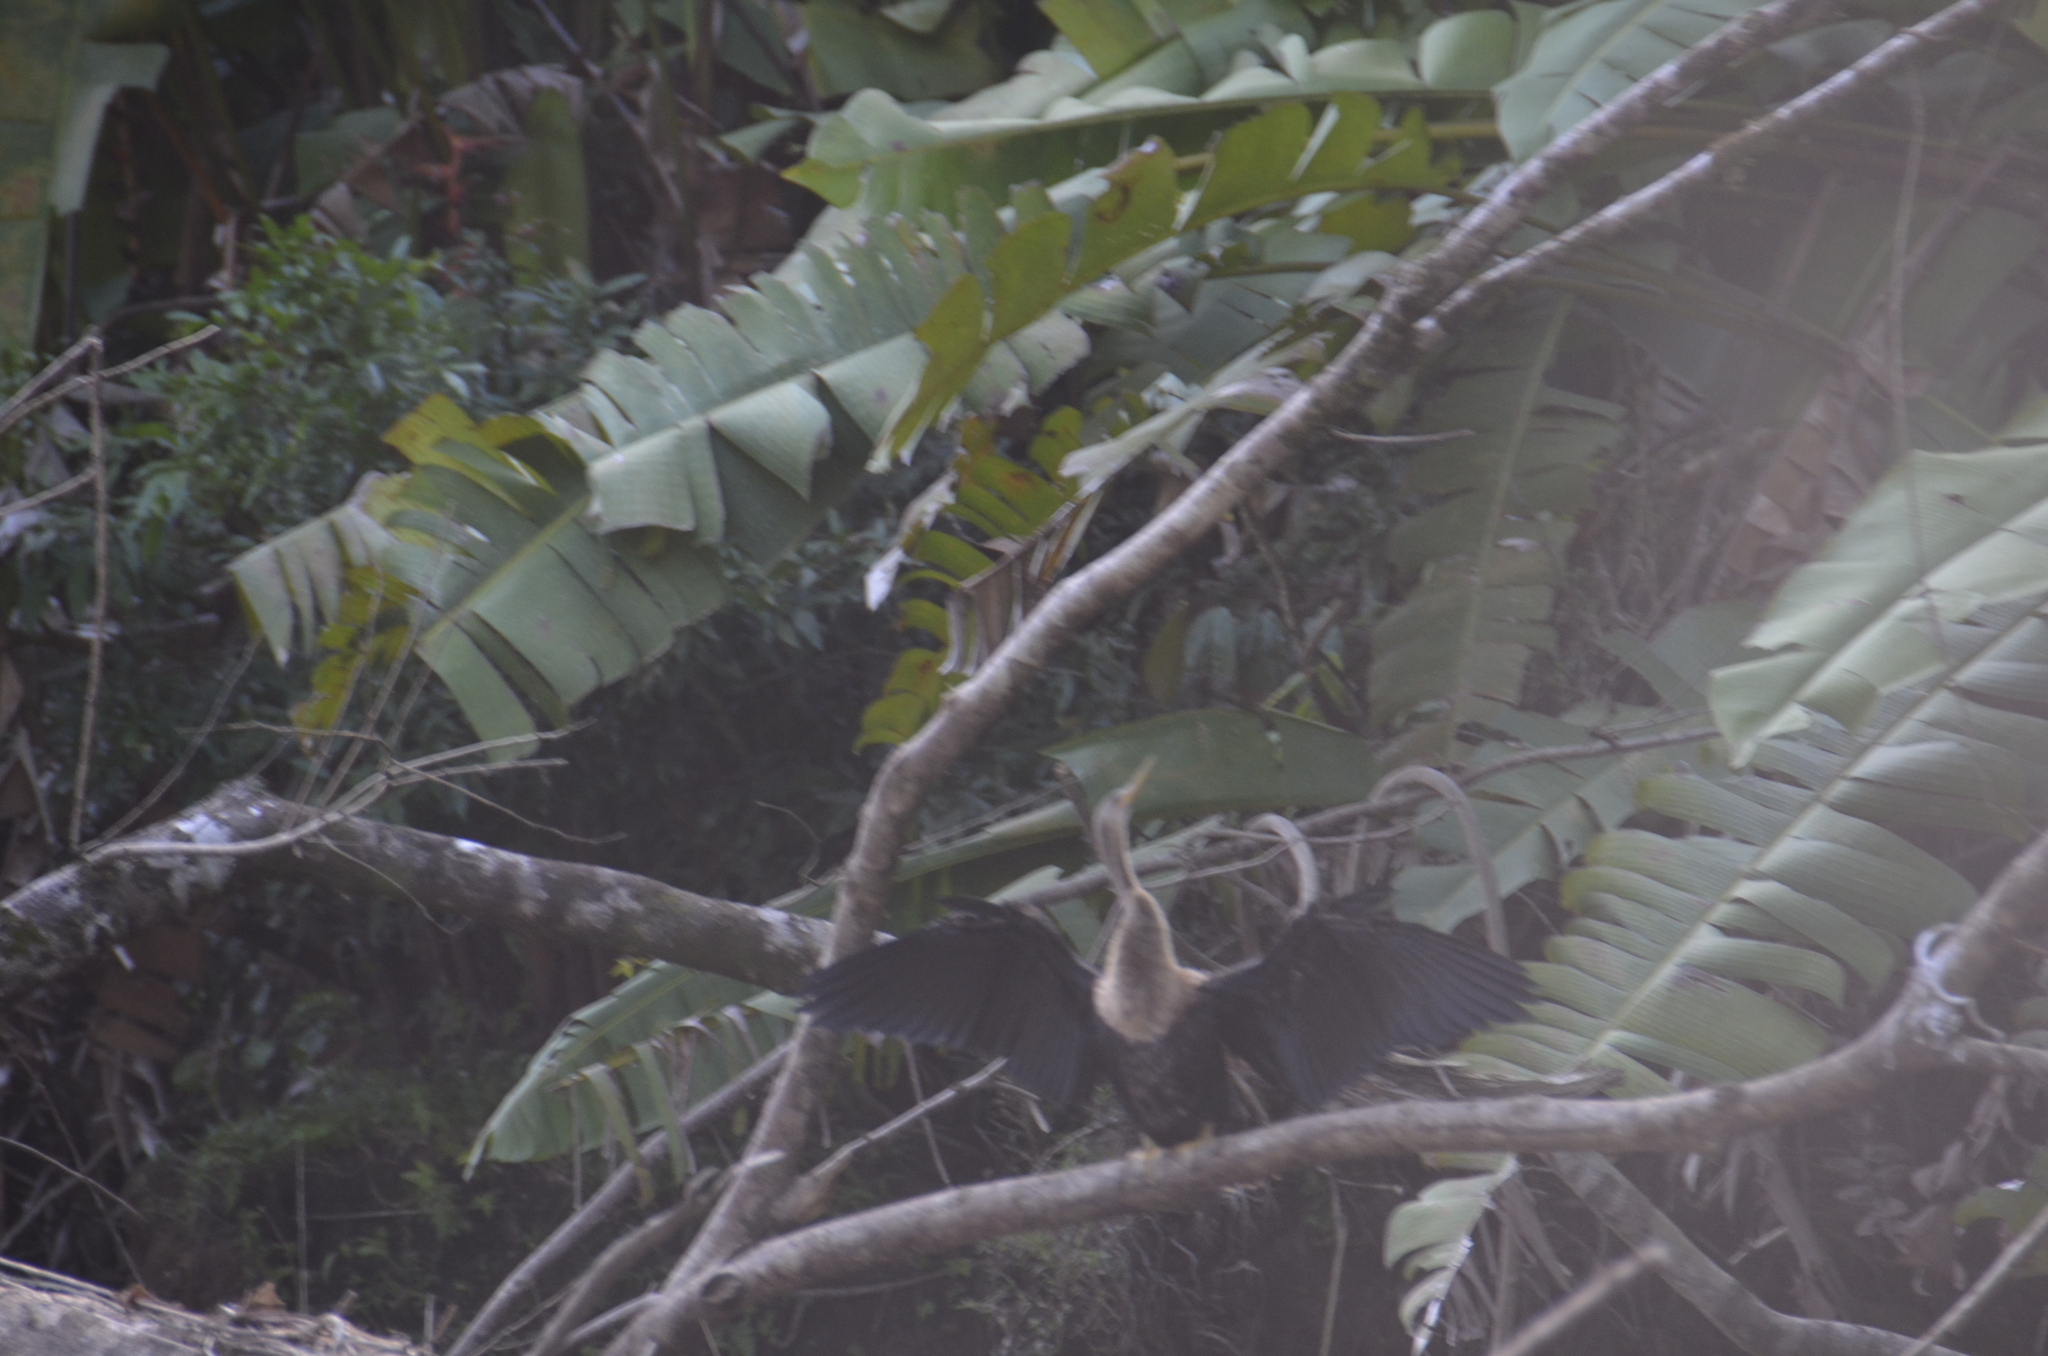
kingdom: Animalia
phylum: Chordata
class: Aves
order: Suliformes
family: Anhingidae
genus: Anhinga
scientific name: Anhinga anhinga
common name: Anhinga
